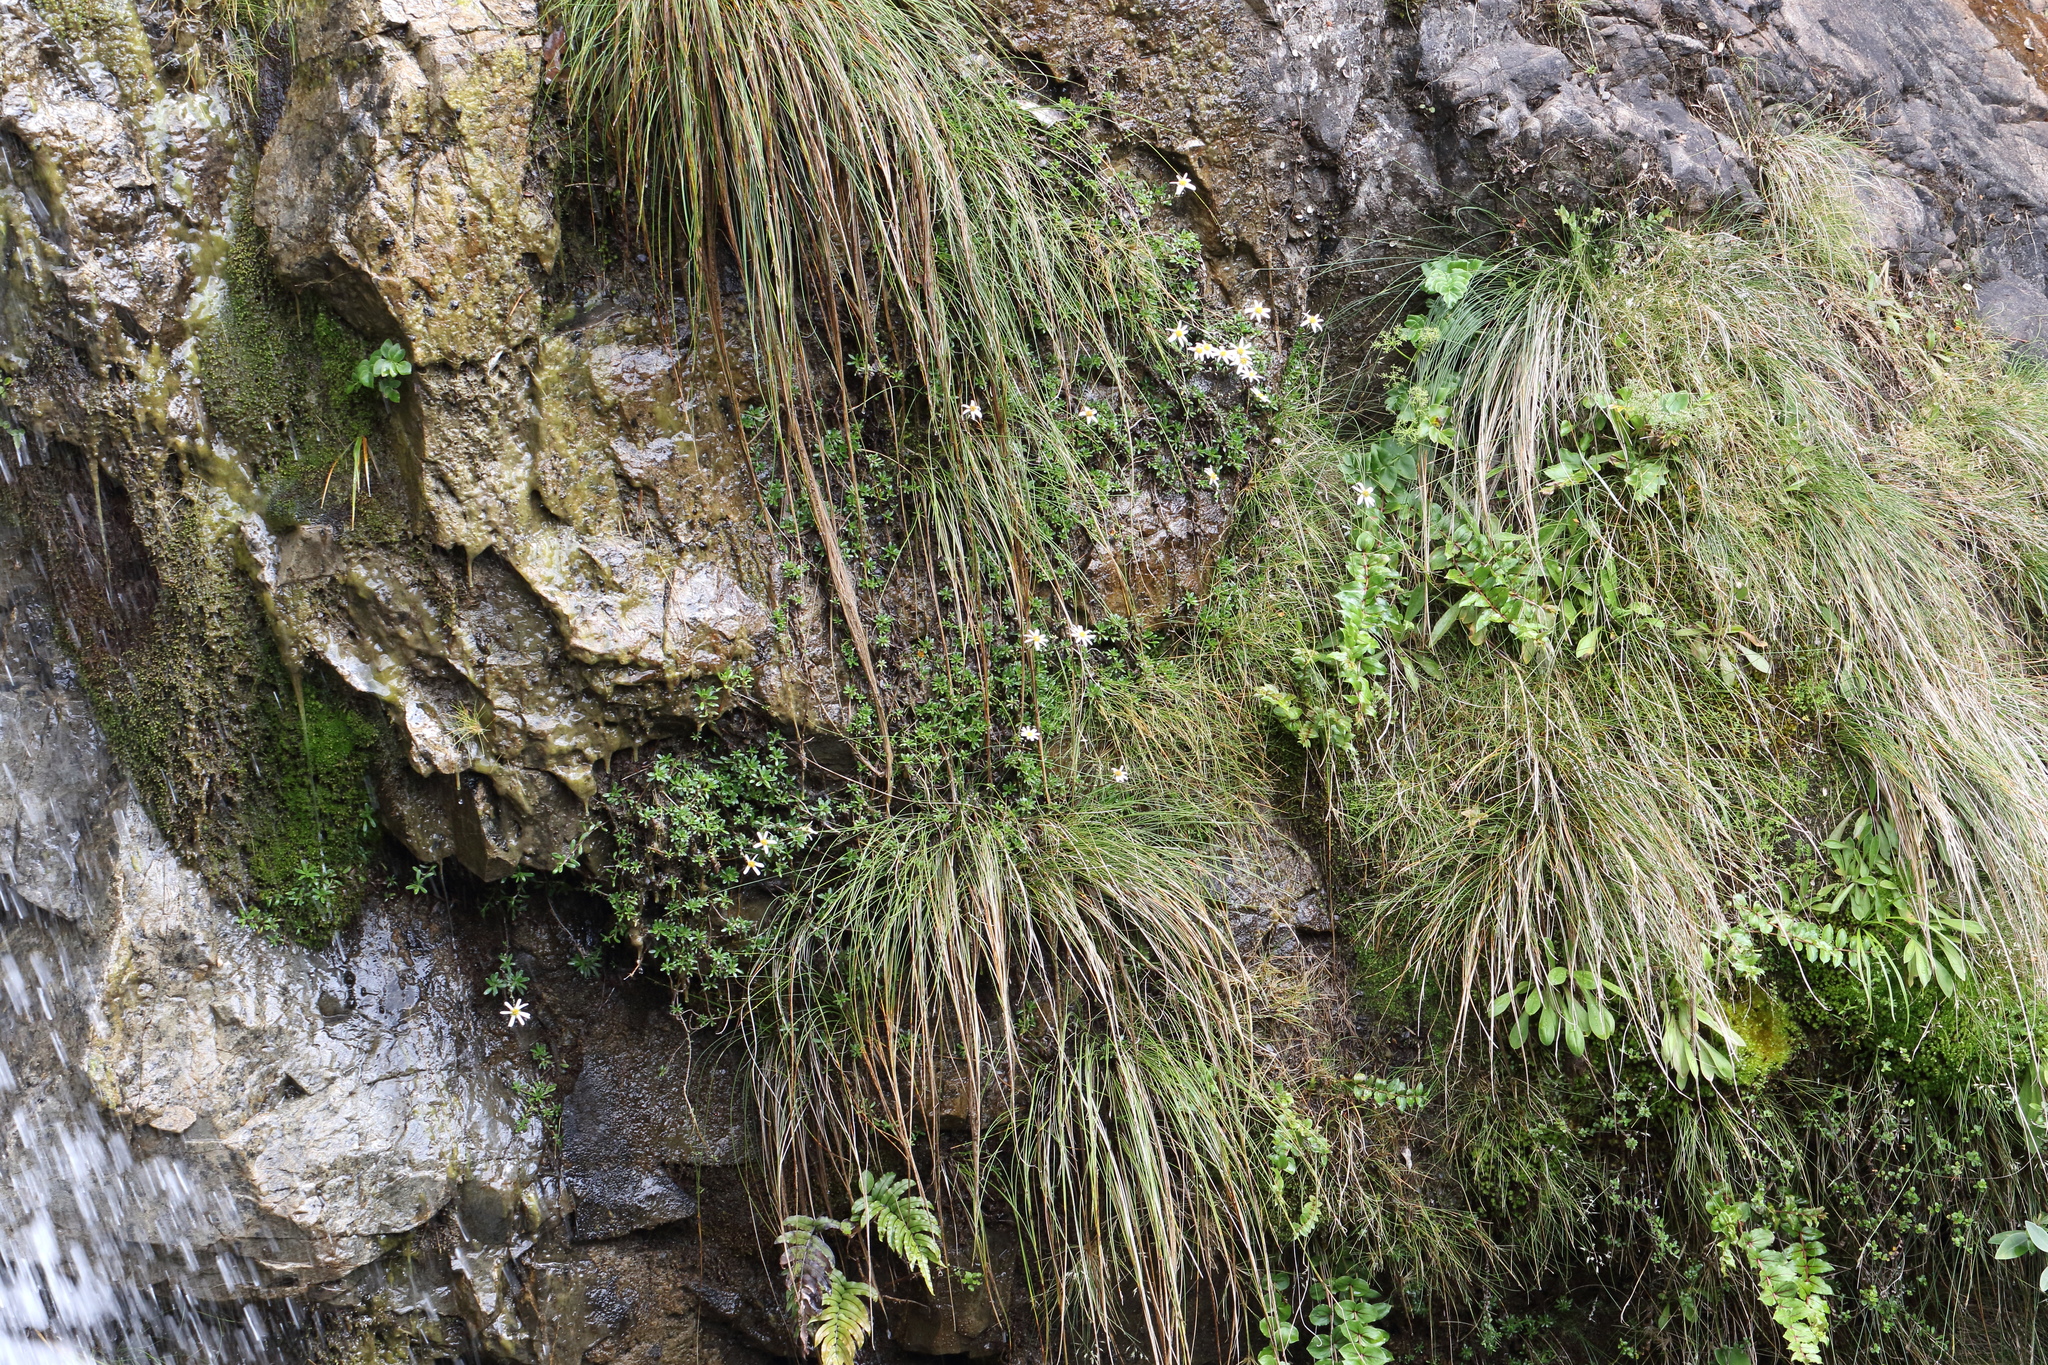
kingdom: Plantae
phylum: Tracheophyta
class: Magnoliopsida
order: Asterales
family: Asteraceae
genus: Celmisia
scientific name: Celmisia bellidioides
